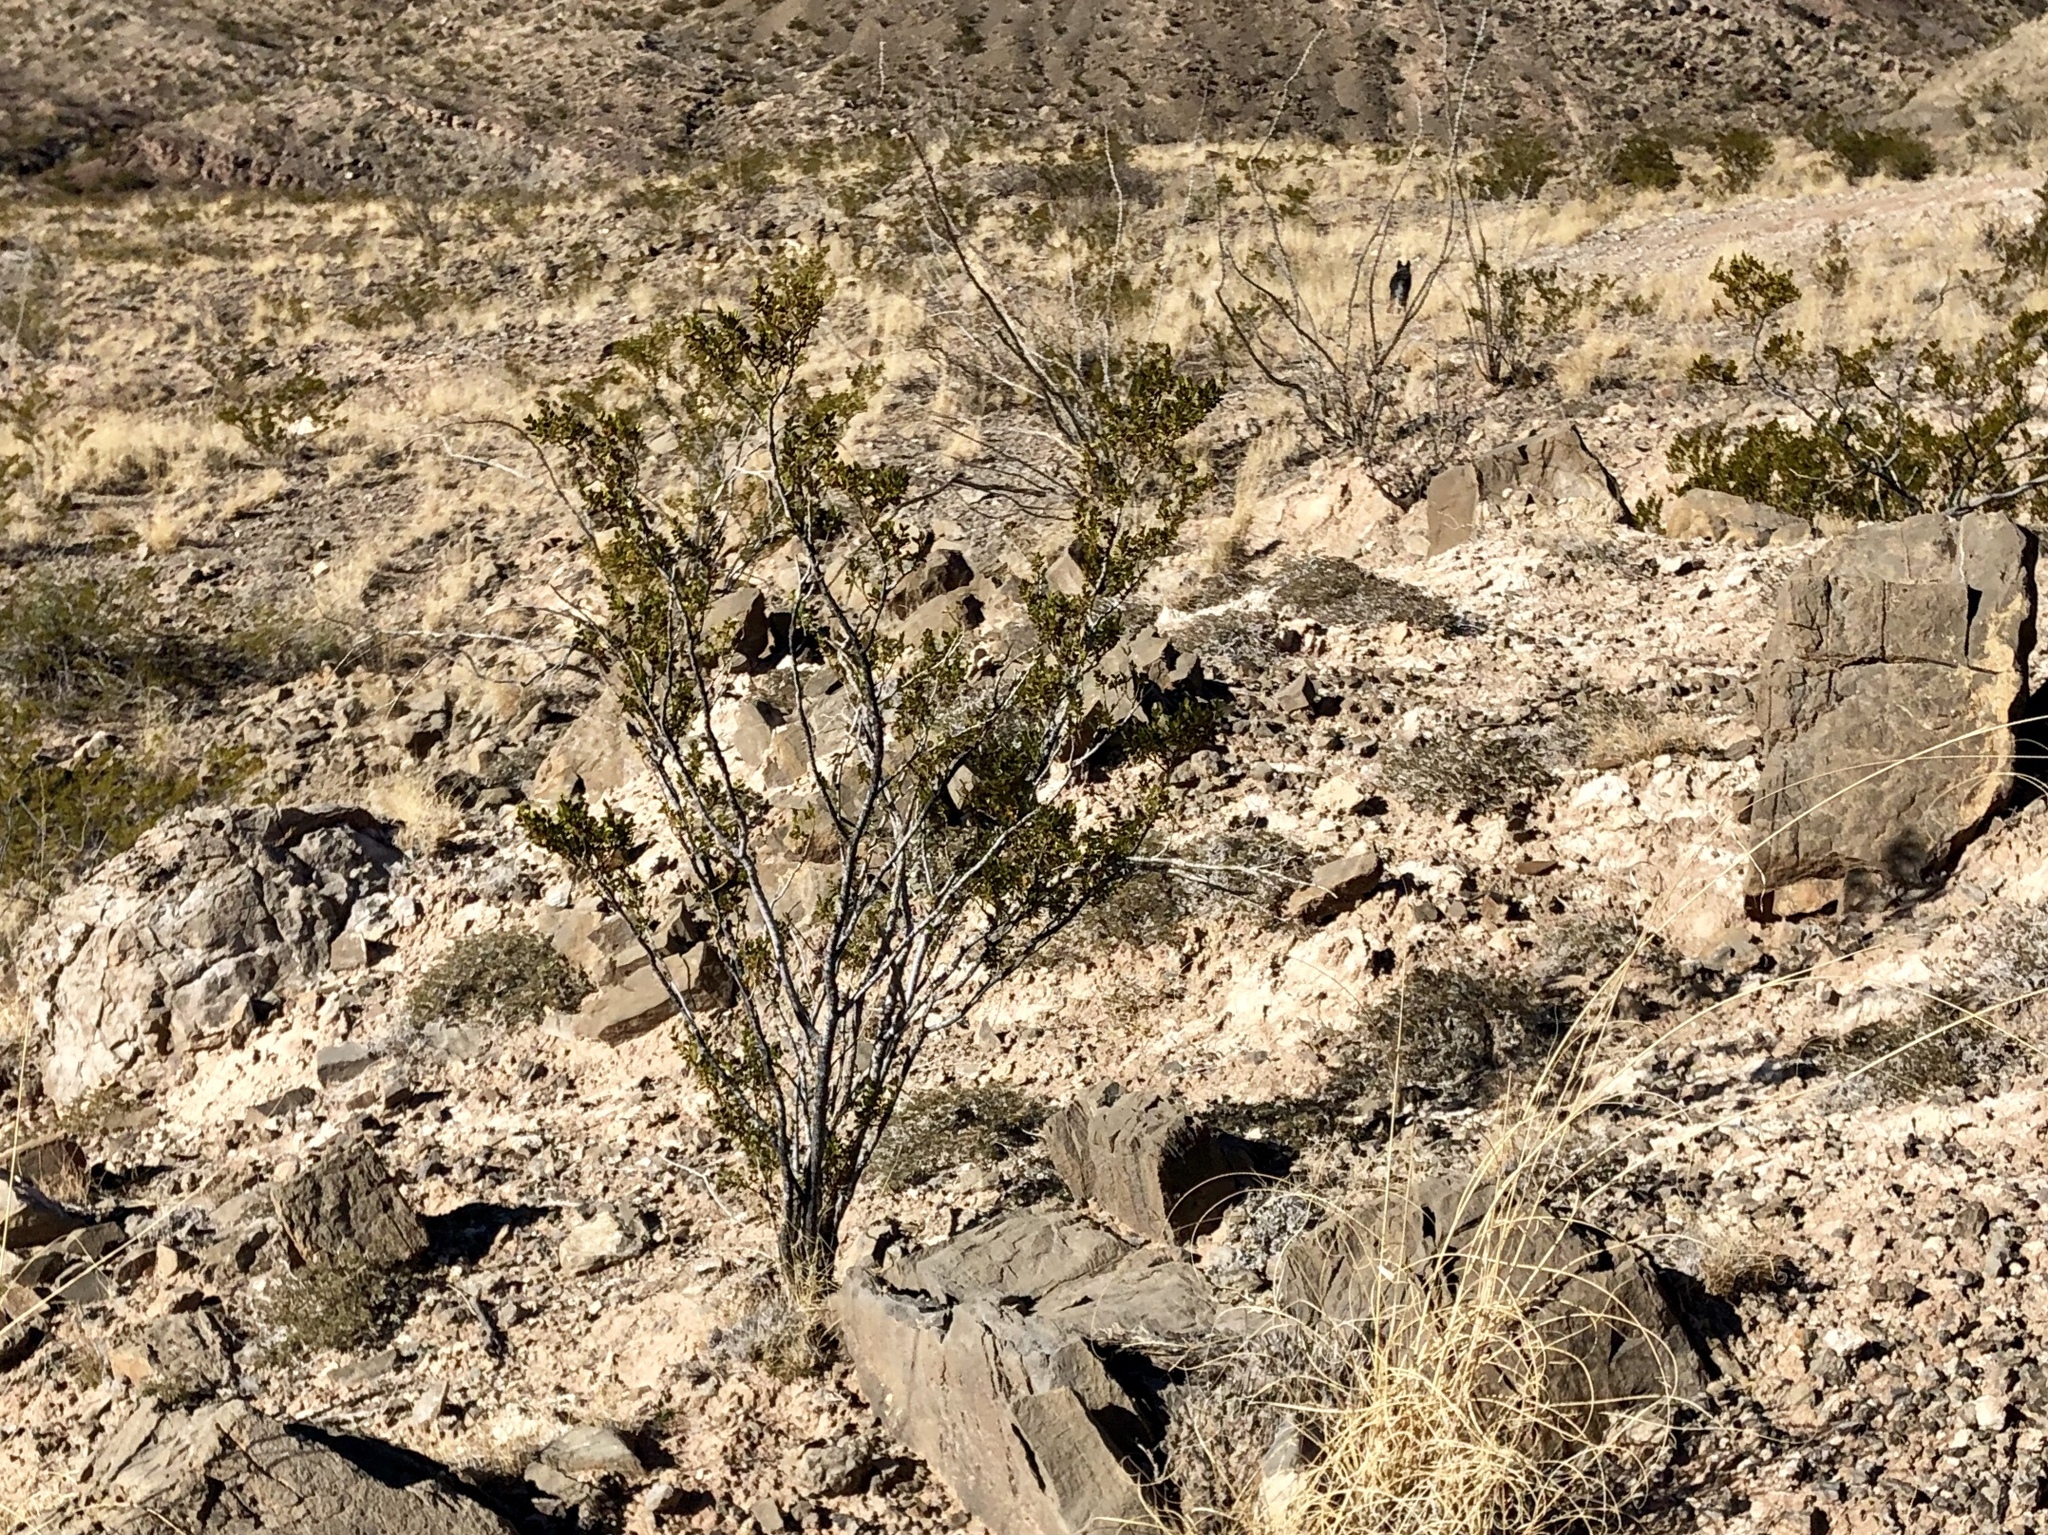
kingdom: Plantae
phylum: Tracheophyta
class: Magnoliopsida
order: Zygophyllales
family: Zygophyllaceae
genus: Larrea
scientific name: Larrea tridentata
